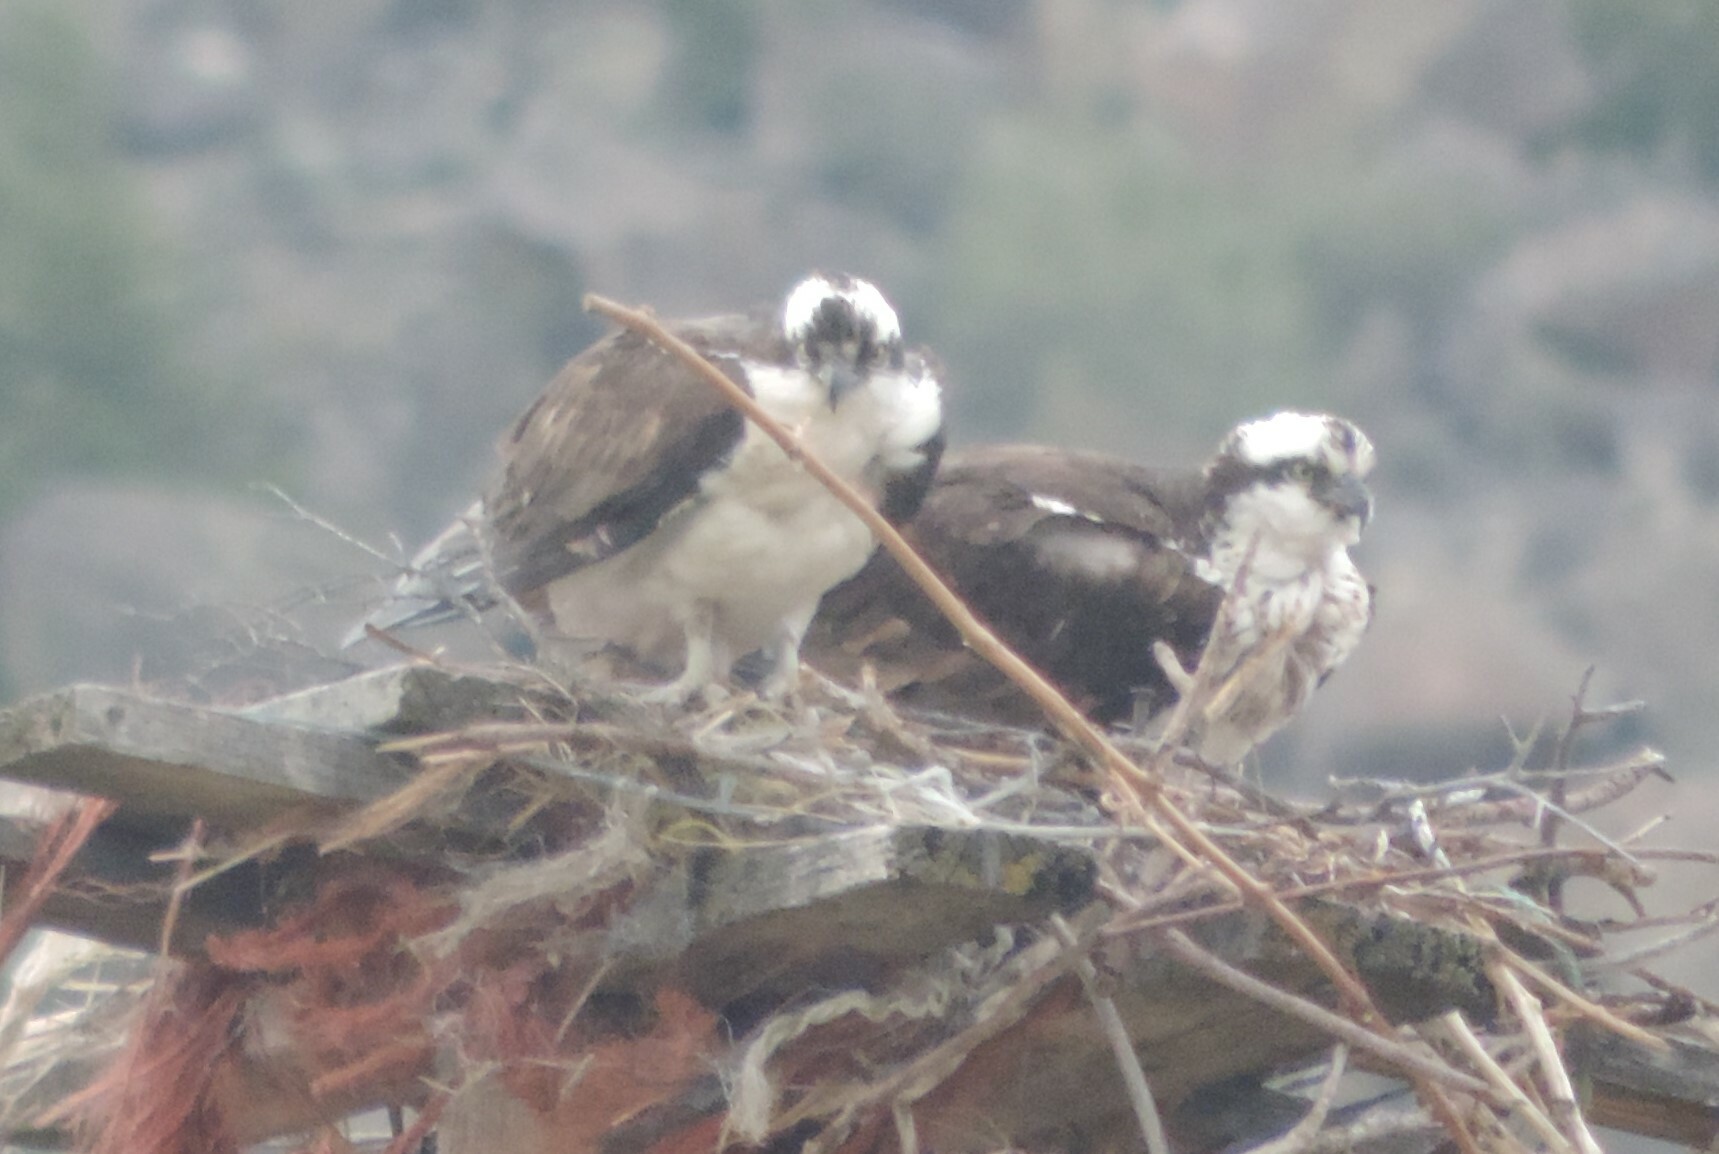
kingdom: Animalia
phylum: Chordata
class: Aves
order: Accipitriformes
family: Pandionidae
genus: Pandion
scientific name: Pandion haliaetus
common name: Osprey
